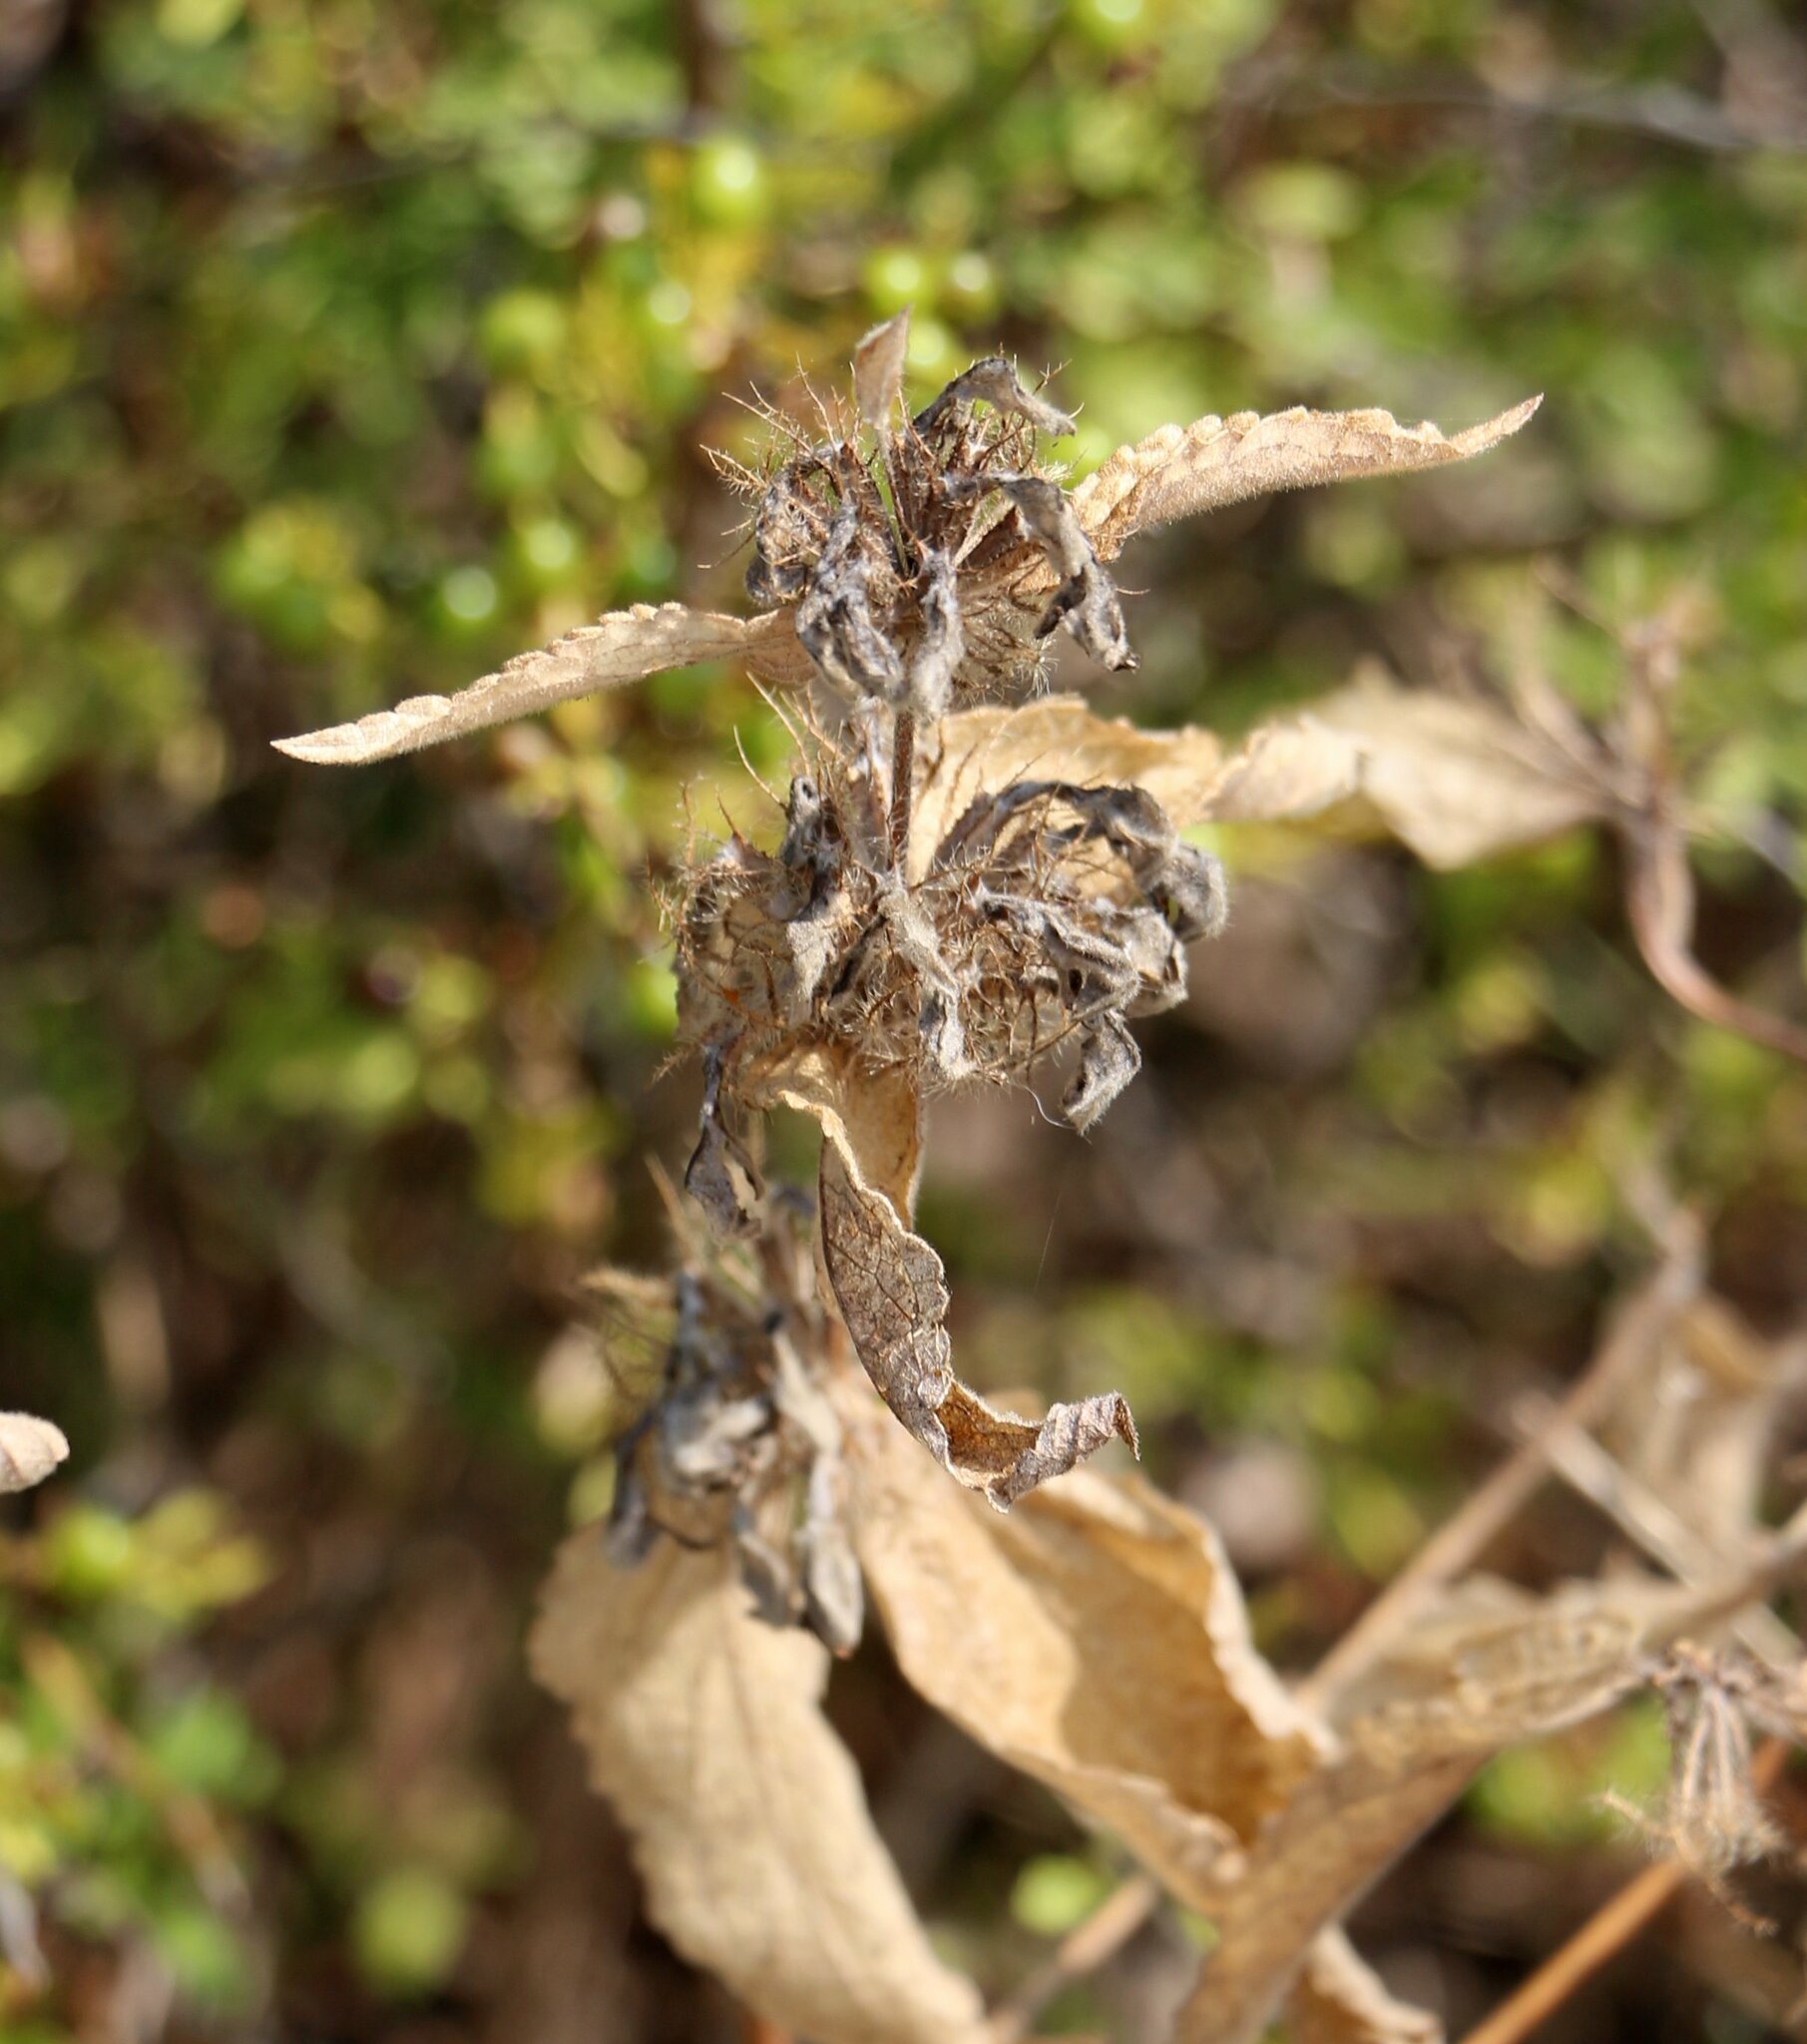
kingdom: Plantae
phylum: Tracheophyta
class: Magnoliopsida
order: Lamiales
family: Lamiaceae
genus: Phlomis
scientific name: Phlomis herba-venti
